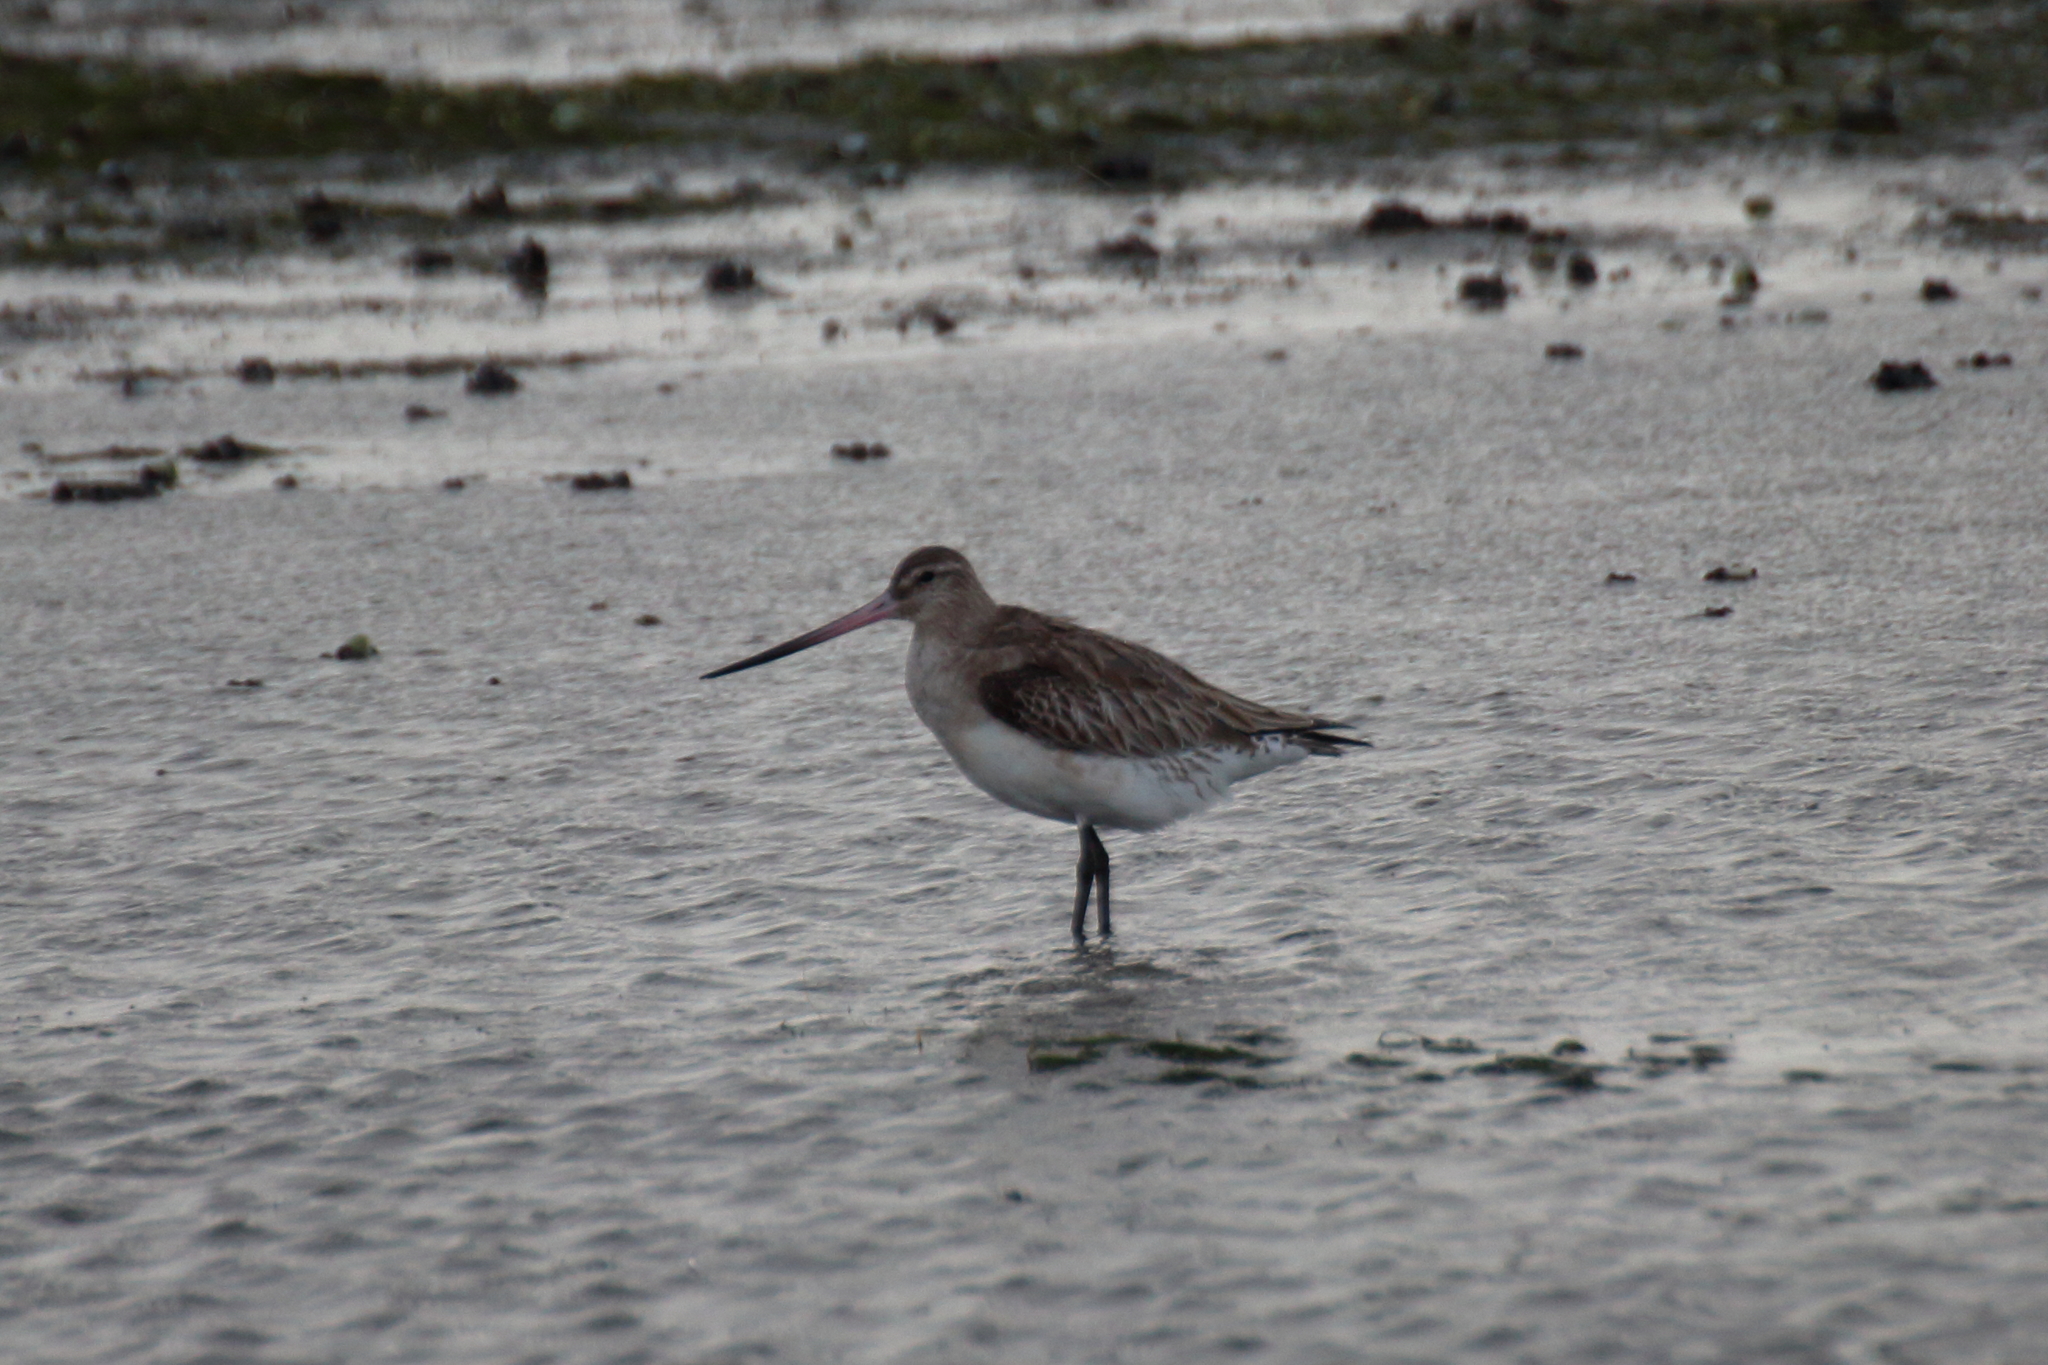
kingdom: Animalia
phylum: Chordata
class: Aves
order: Charadriiformes
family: Scolopacidae
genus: Limosa
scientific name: Limosa lapponica
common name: Bar-tailed godwit
